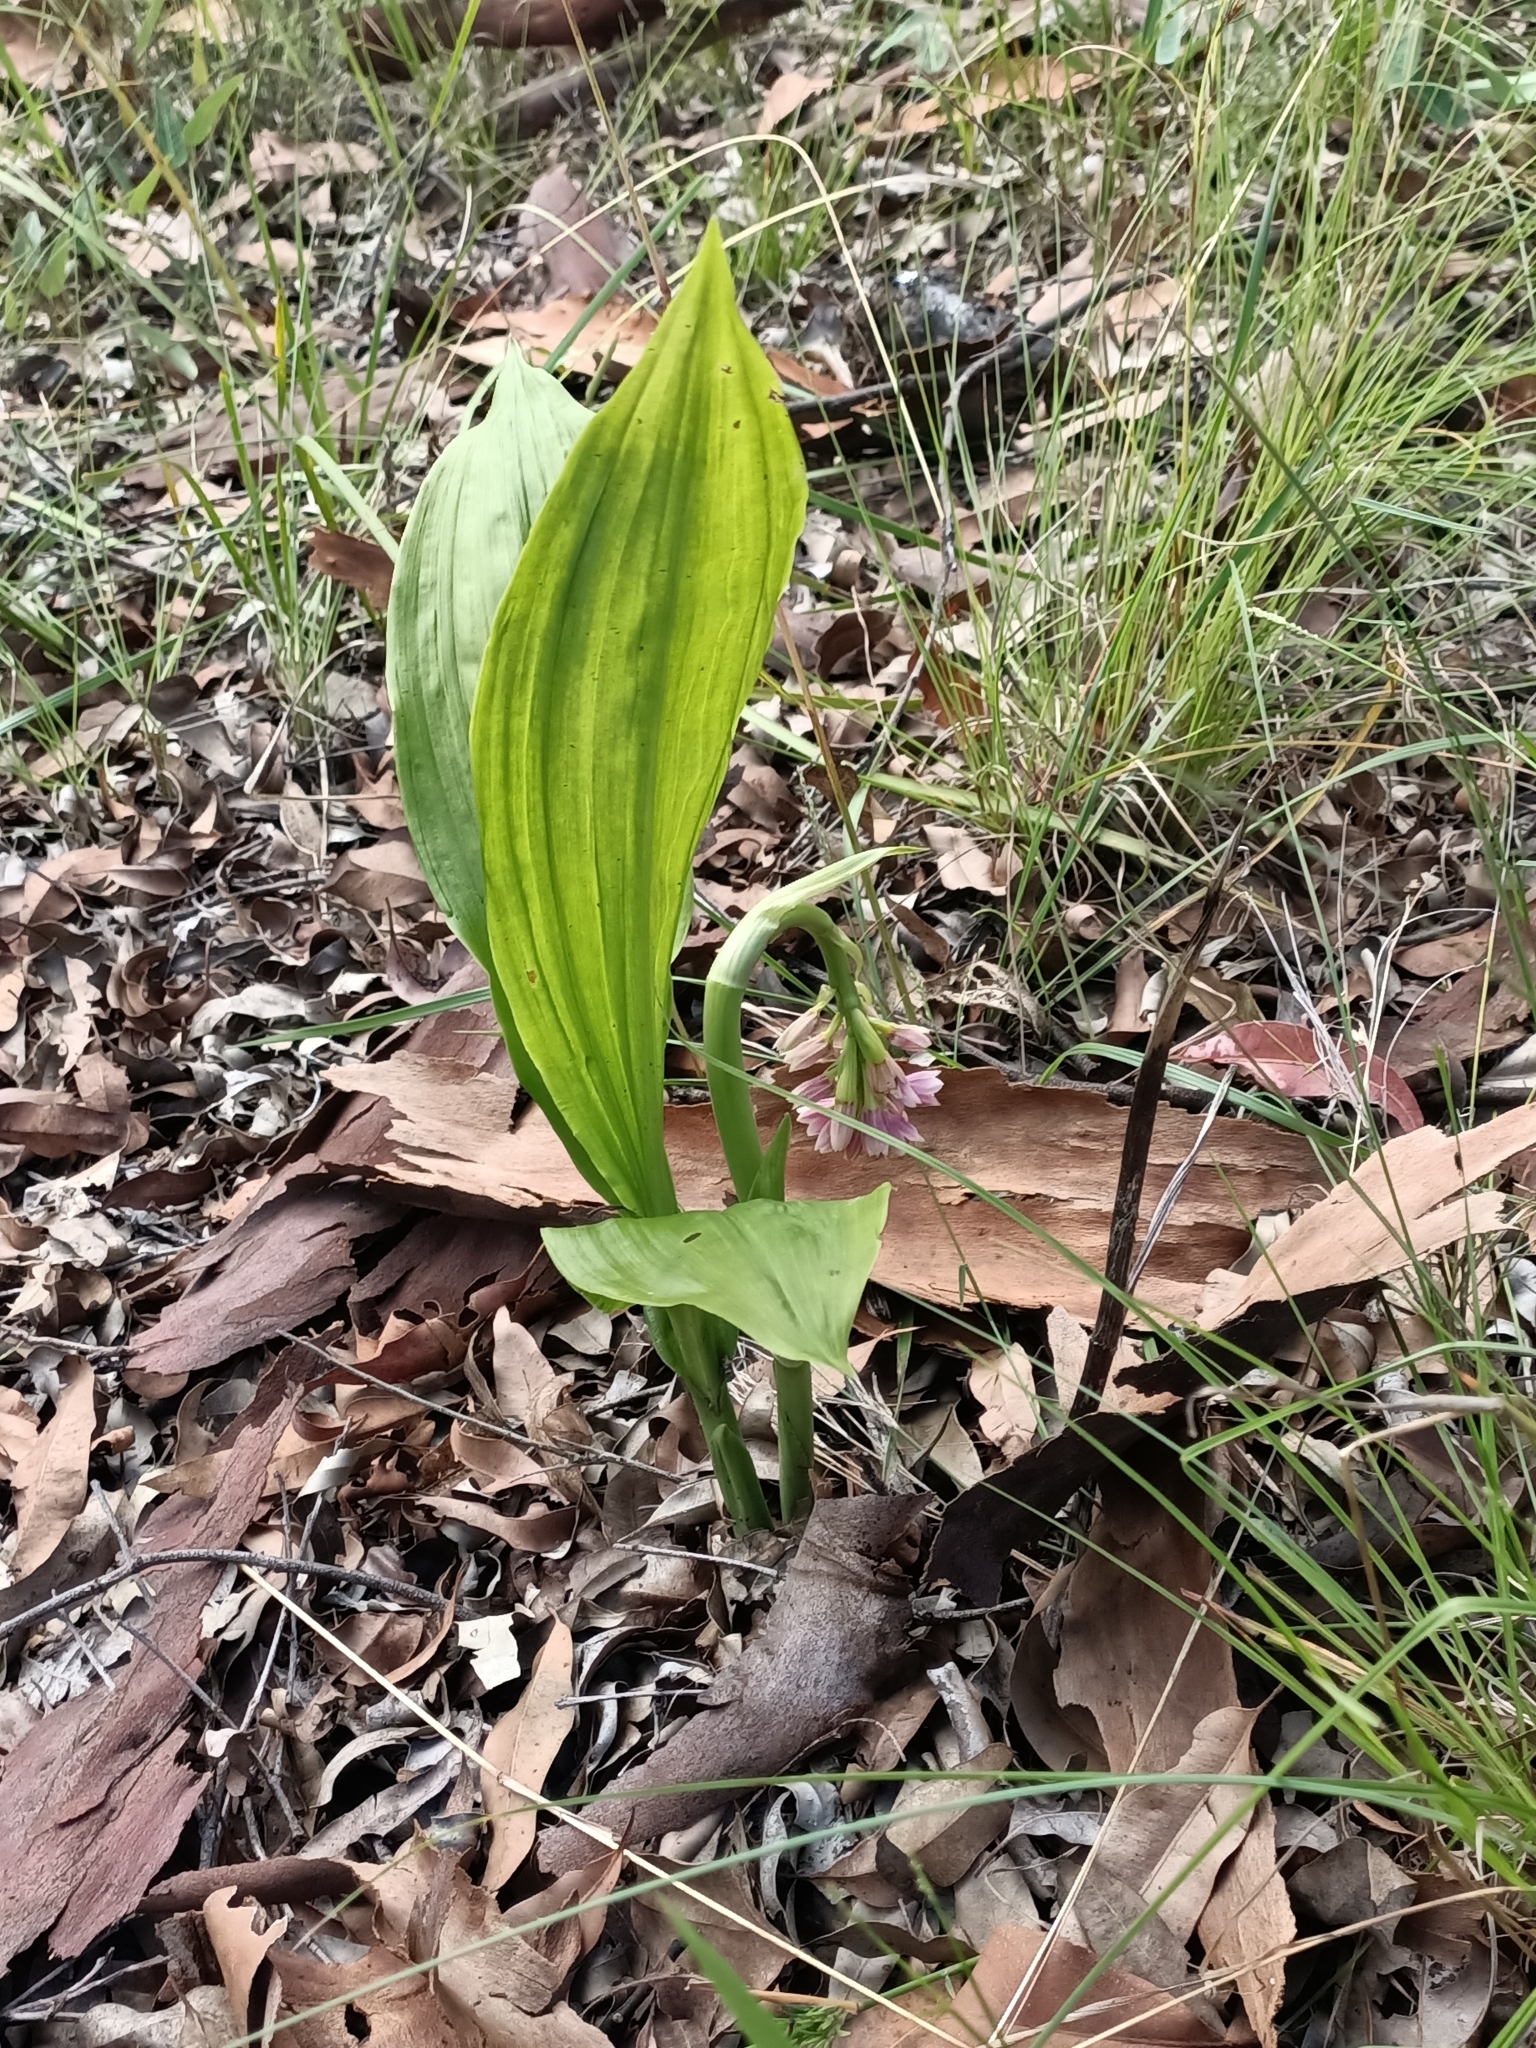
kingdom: Plantae
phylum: Tracheophyta
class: Liliopsida
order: Asparagales
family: Orchidaceae
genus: Eulophia
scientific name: Eulophia cernua
